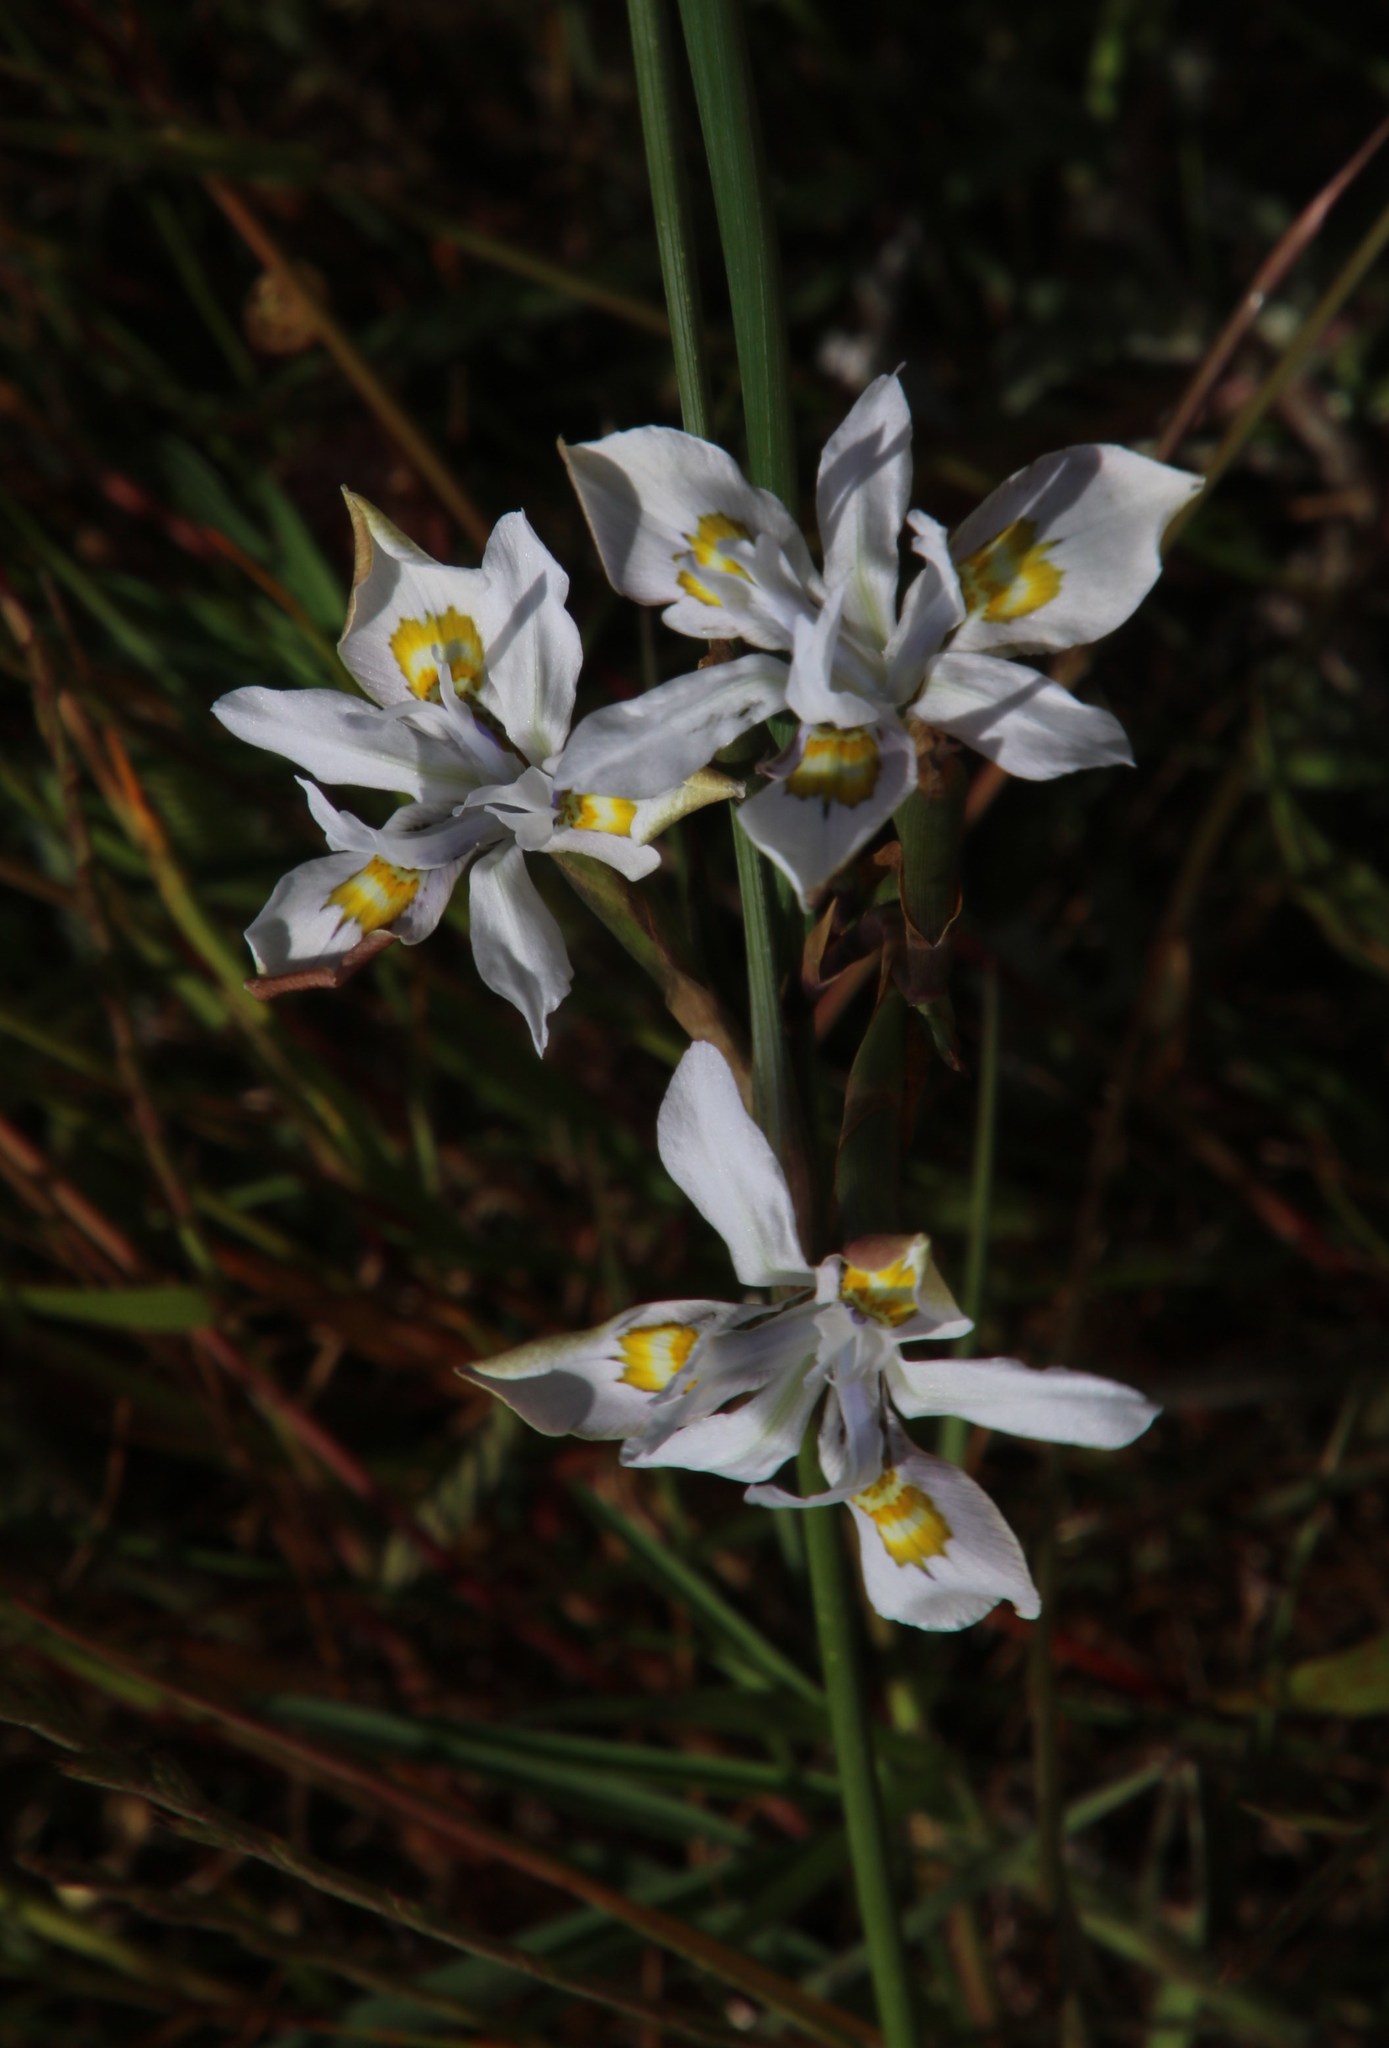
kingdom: Plantae
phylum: Tracheophyta
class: Liliopsida
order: Asparagales
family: Iridaceae
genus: Moraea
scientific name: Moraea fugax
